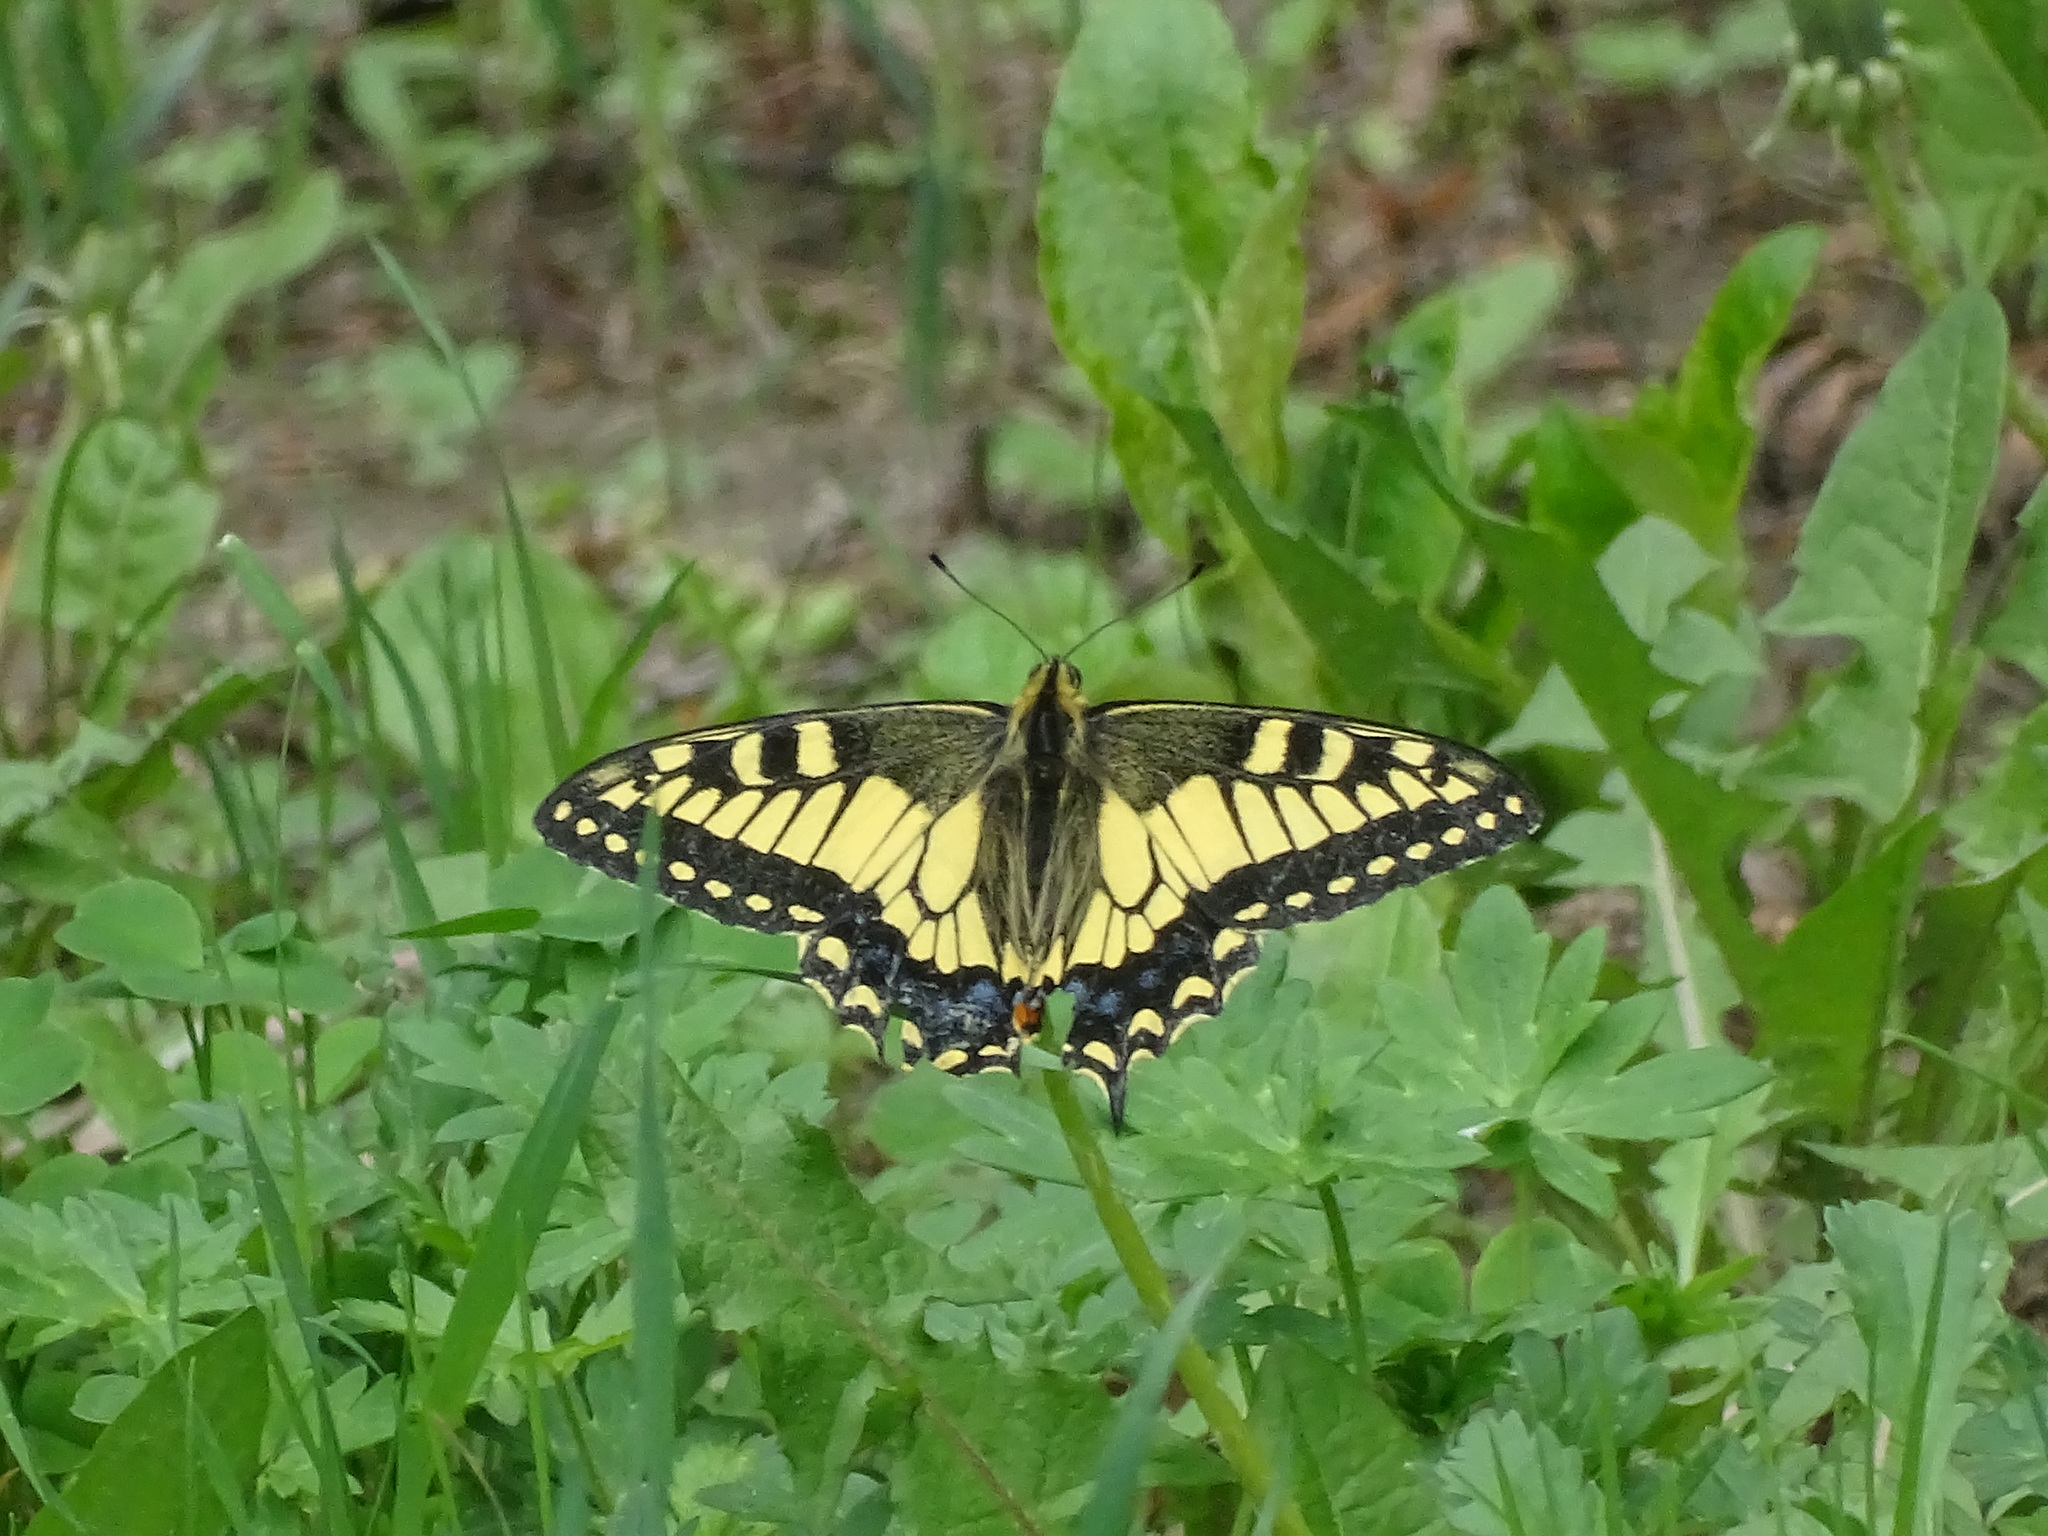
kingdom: Animalia
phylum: Arthropoda
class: Insecta
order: Lepidoptera
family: Papilionidae
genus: Papilio
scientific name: Papilio machaon
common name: Swallowtail
